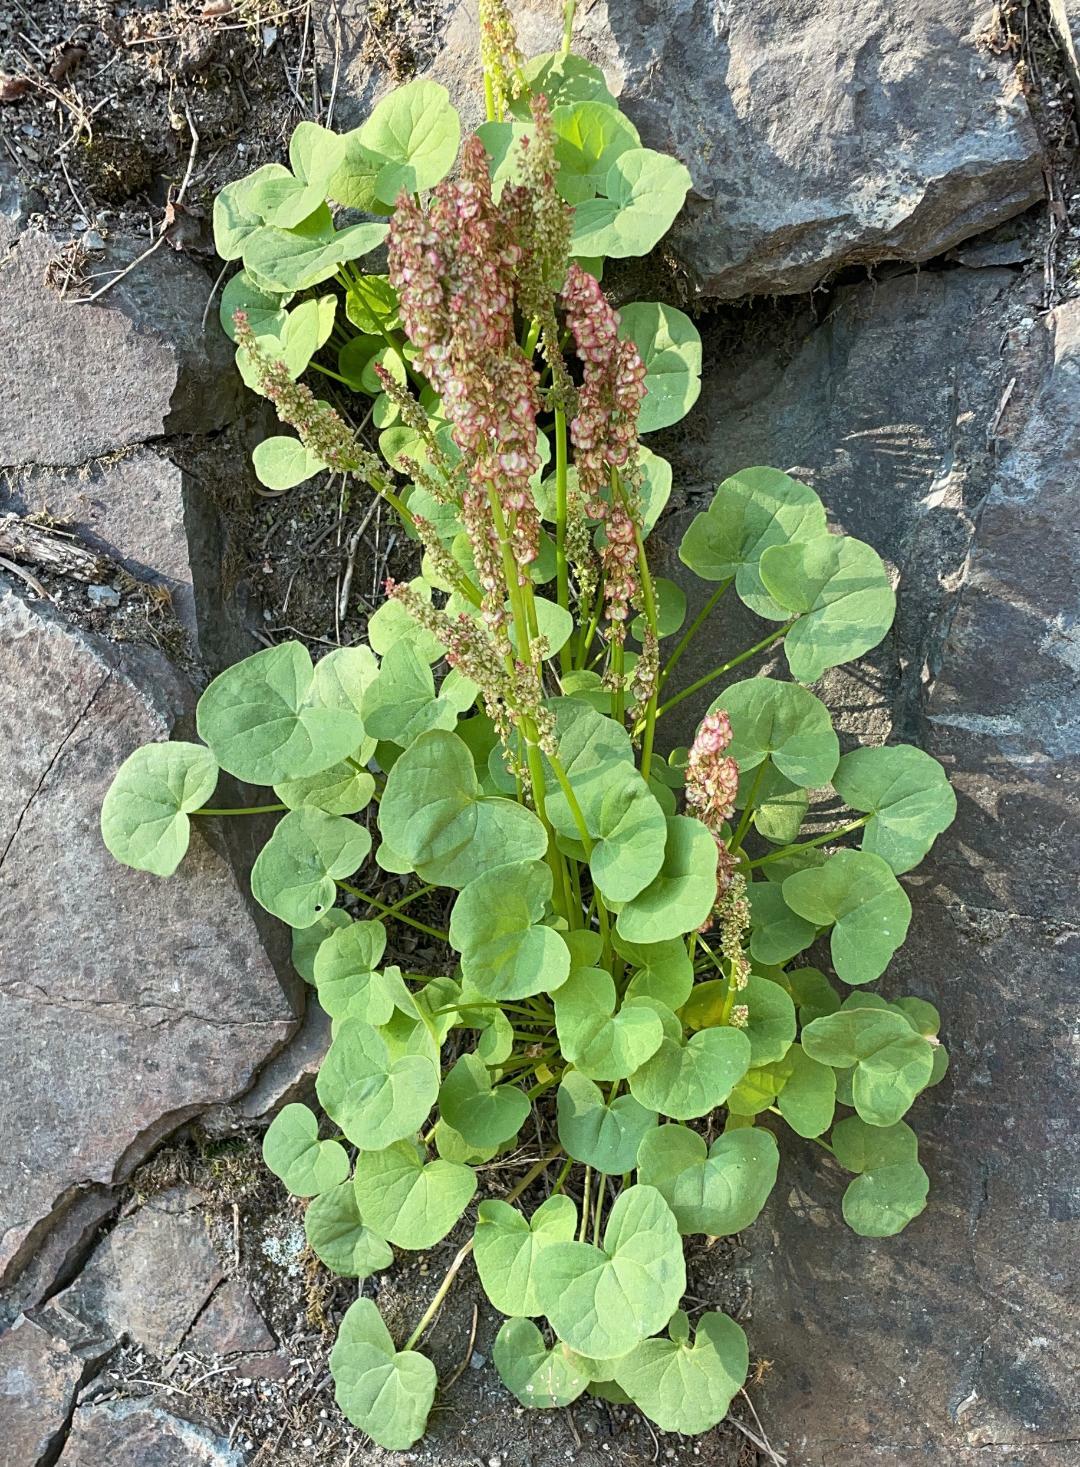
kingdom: Plantae
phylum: Tracheophyta
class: Magnoliopsida
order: Caryophyllales
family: Polygonaceae
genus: Oxyria
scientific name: Oxyria digyna
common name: Alpine mountain-sorrel
